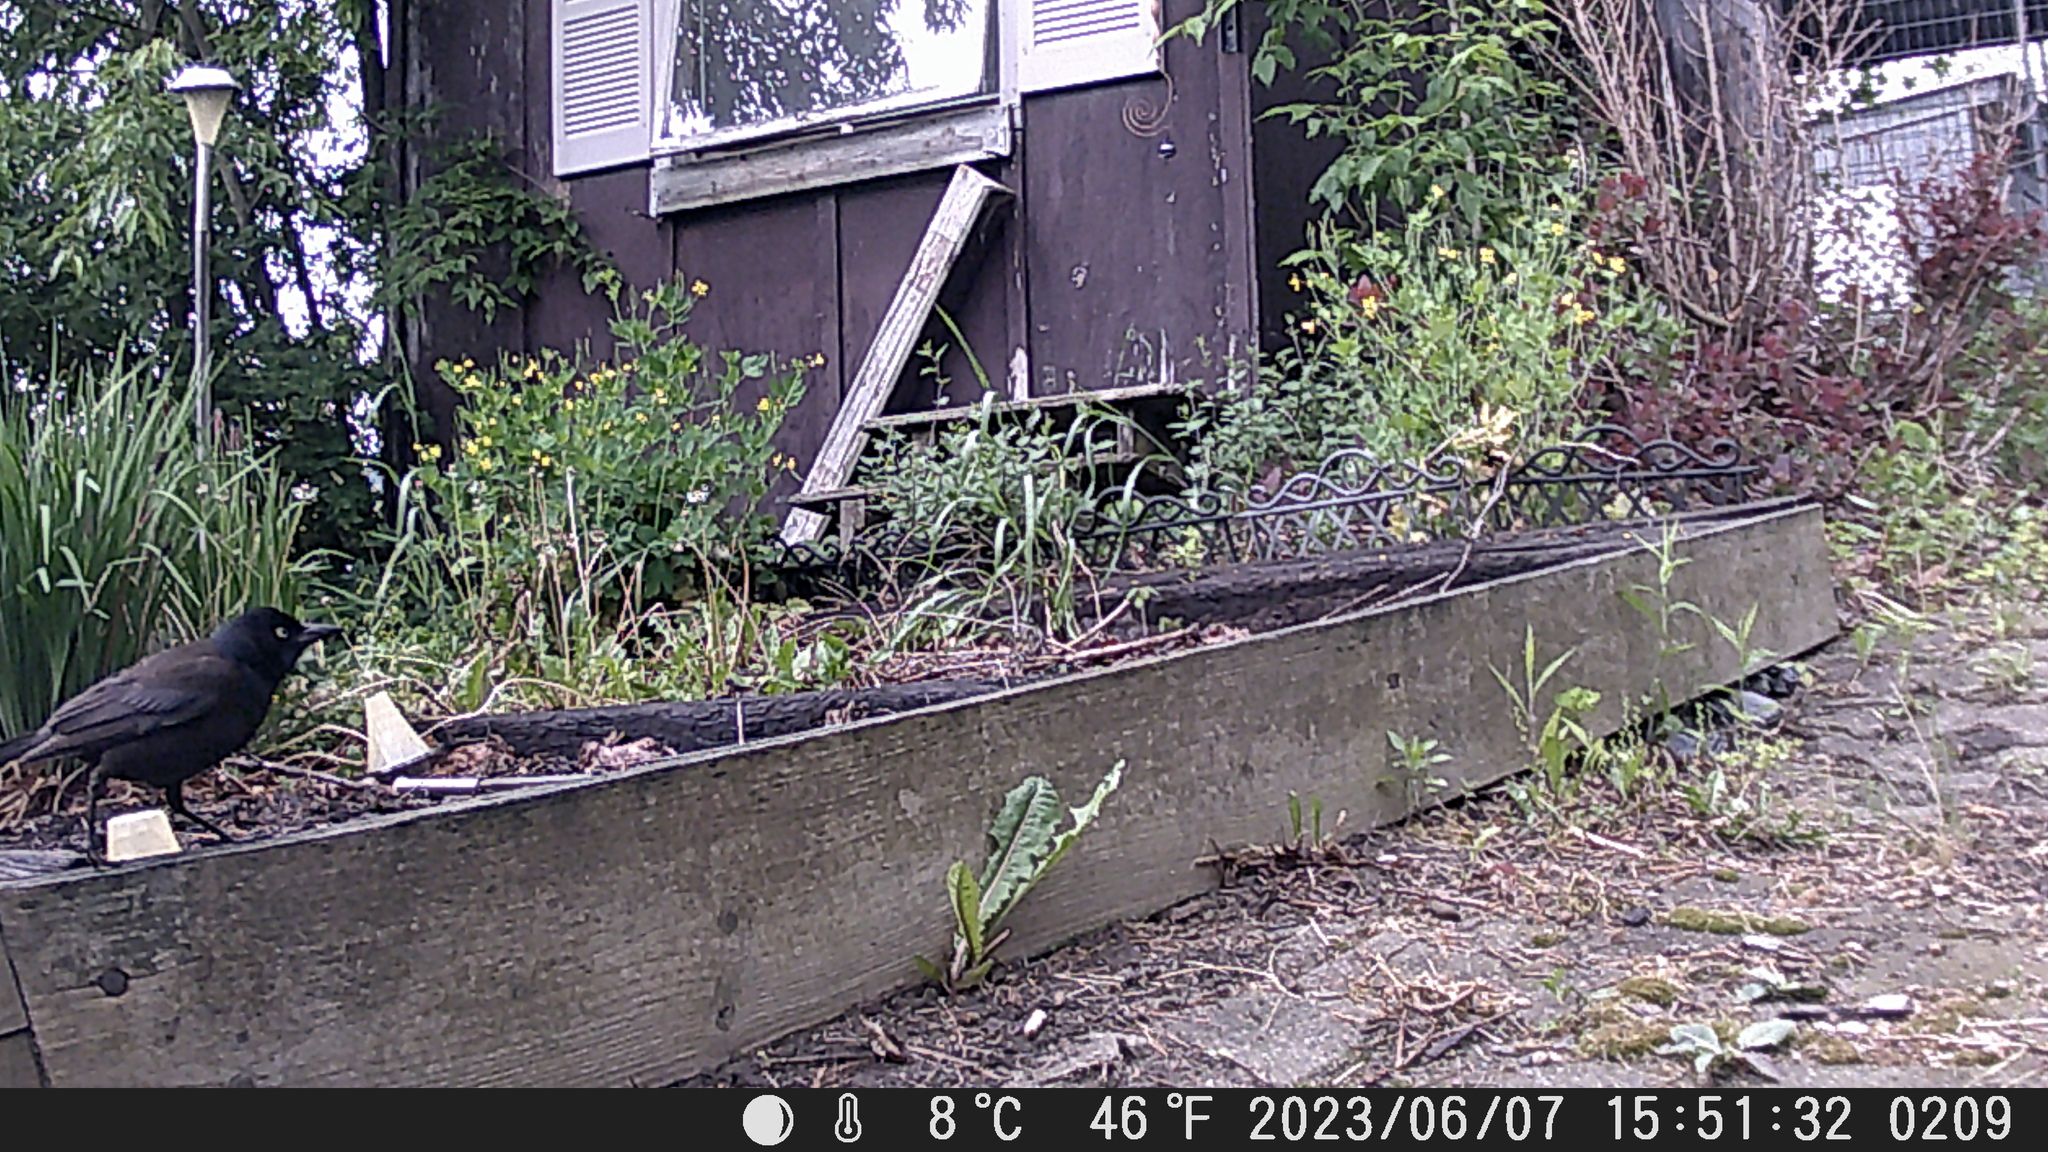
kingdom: Animalia
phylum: Chordata
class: Aves
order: Passeriformes
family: Icteridae
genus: Quiscalus
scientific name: Quiscalus quiscula
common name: Common grackle
